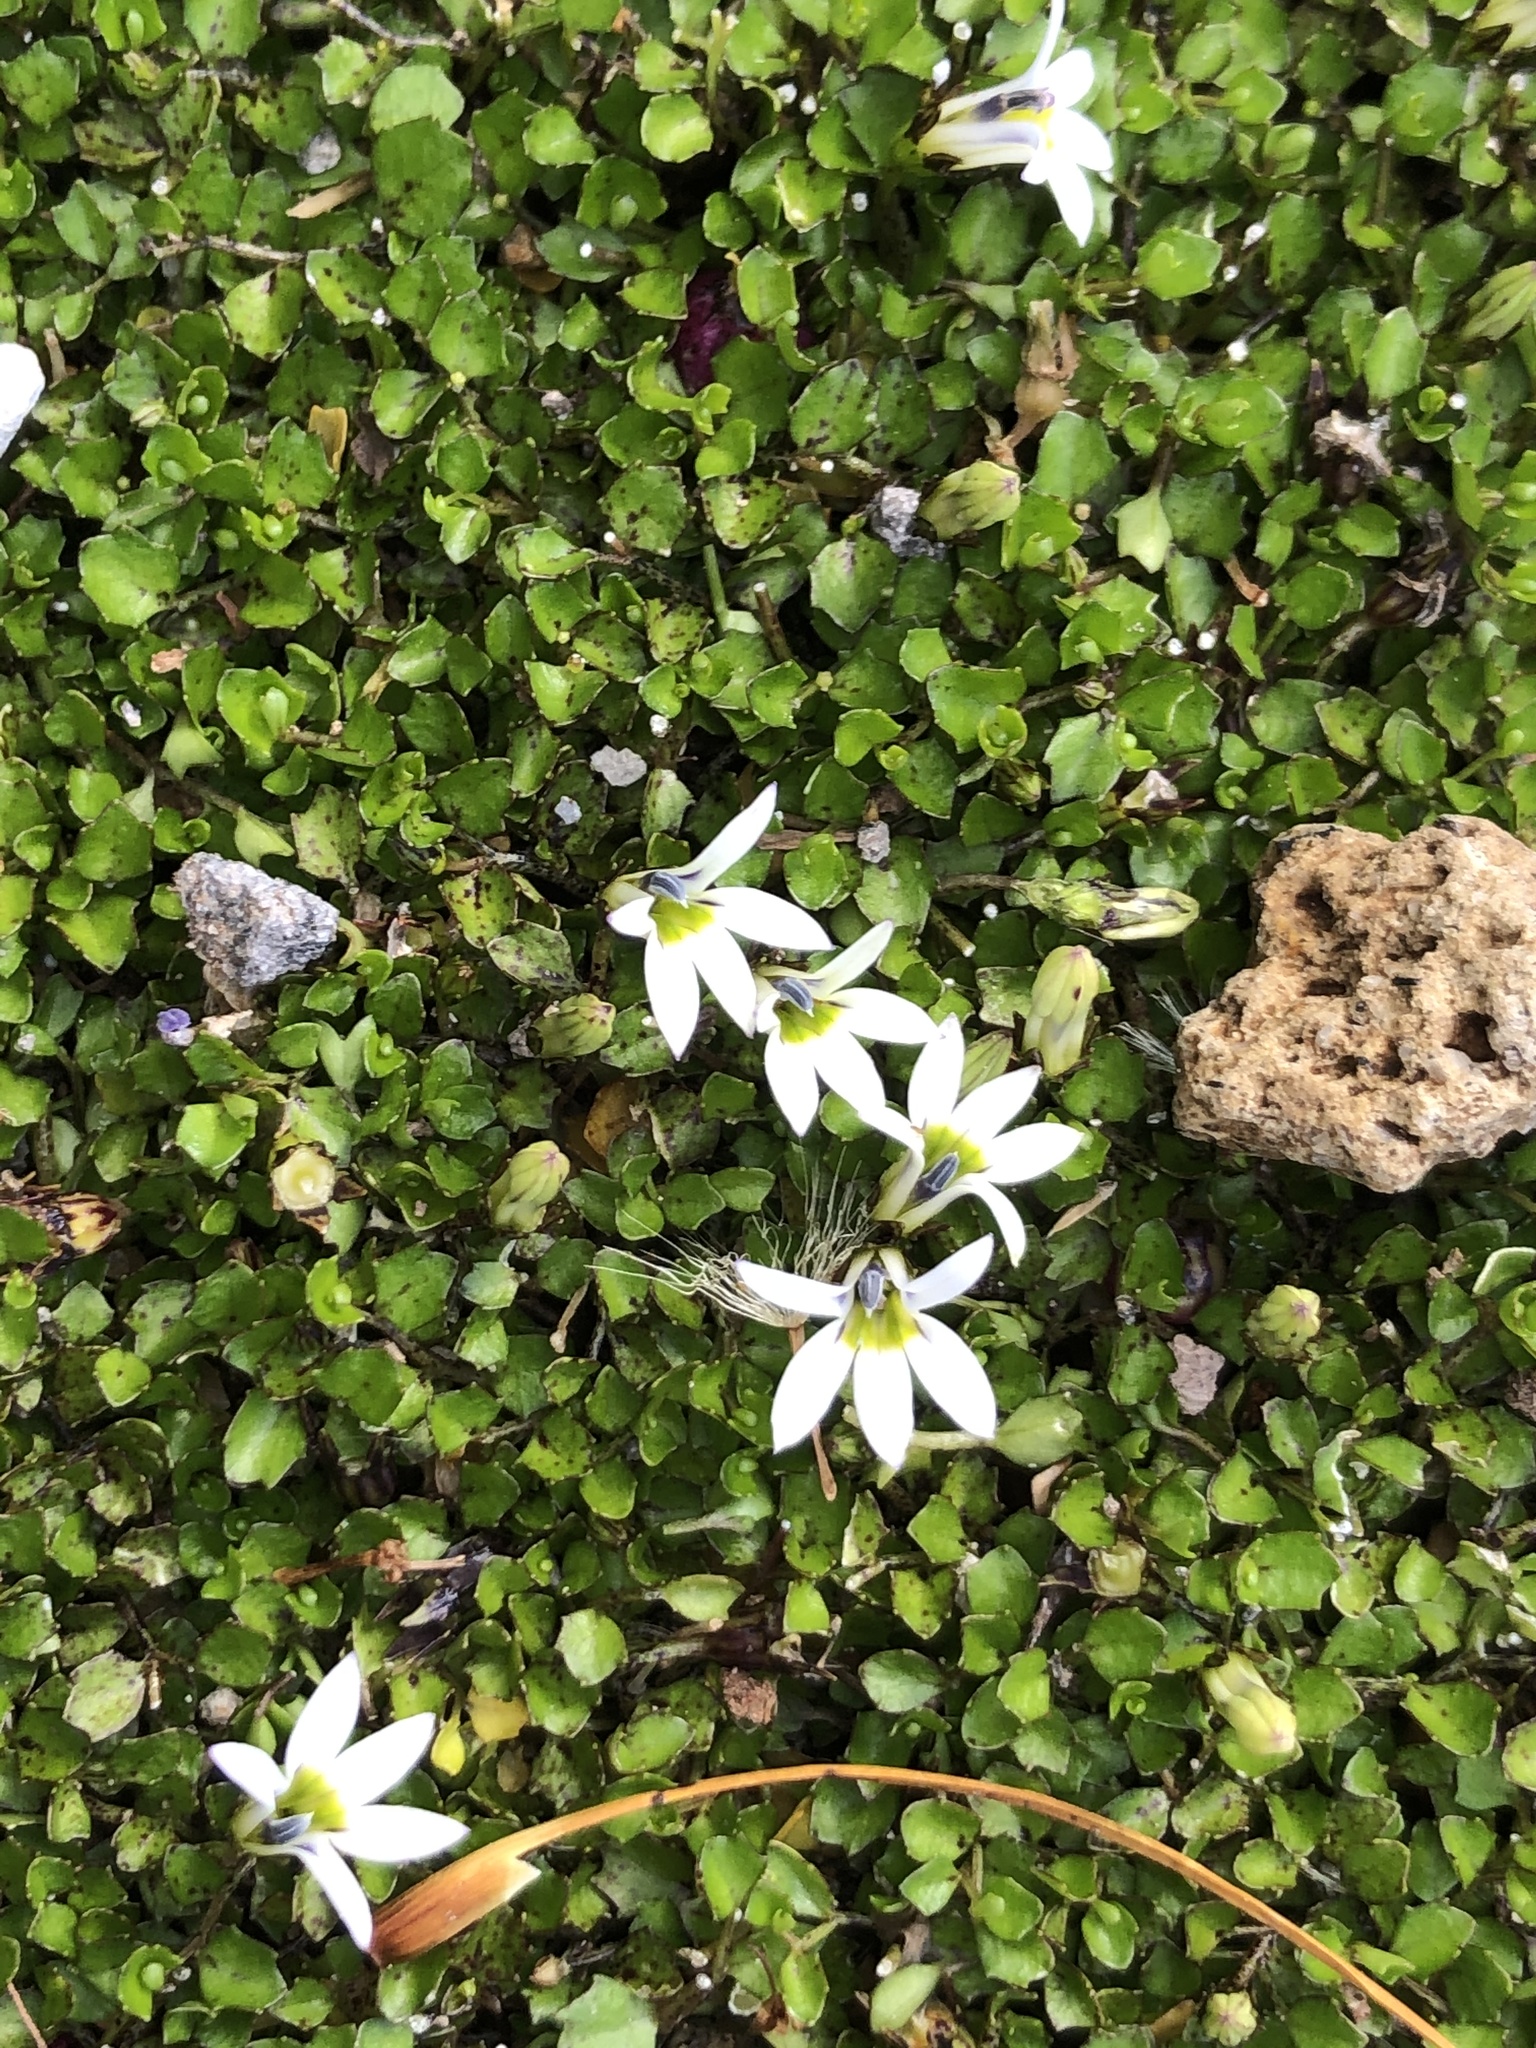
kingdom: Plantae
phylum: Tracheophyta
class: Magnoliopsida
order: Asterales
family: Campanulaceae
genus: Lobelia
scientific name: Lobelia angulata
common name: Lawn lobelia
